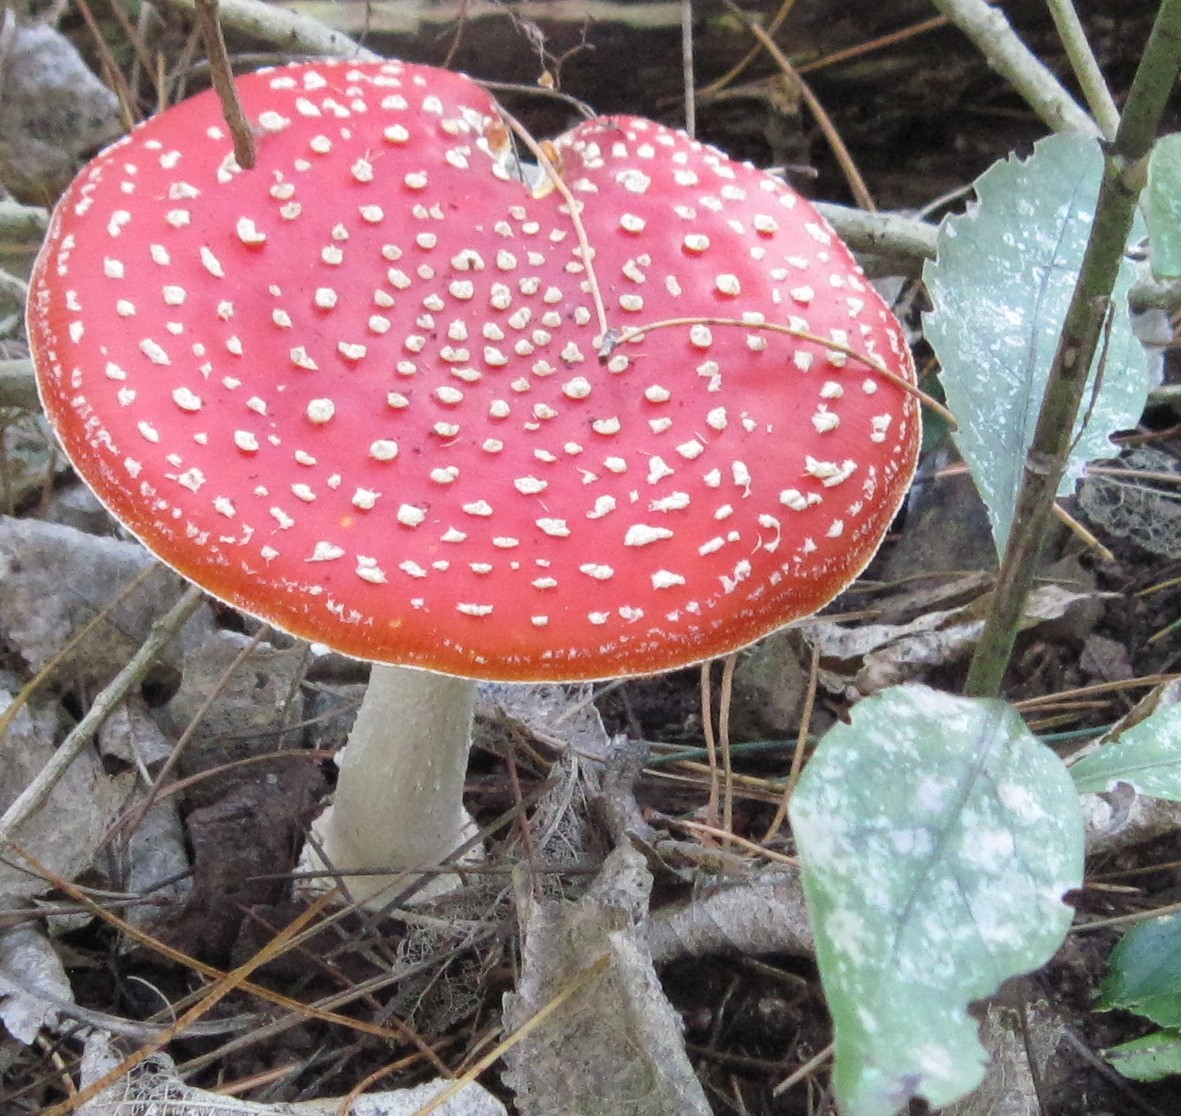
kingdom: Fungi
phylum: Basidiomycota
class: Agaricomycetes
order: Agaricales
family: Amanitaceae
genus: Amanita
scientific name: Amanita muscaria
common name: Fly agaric
